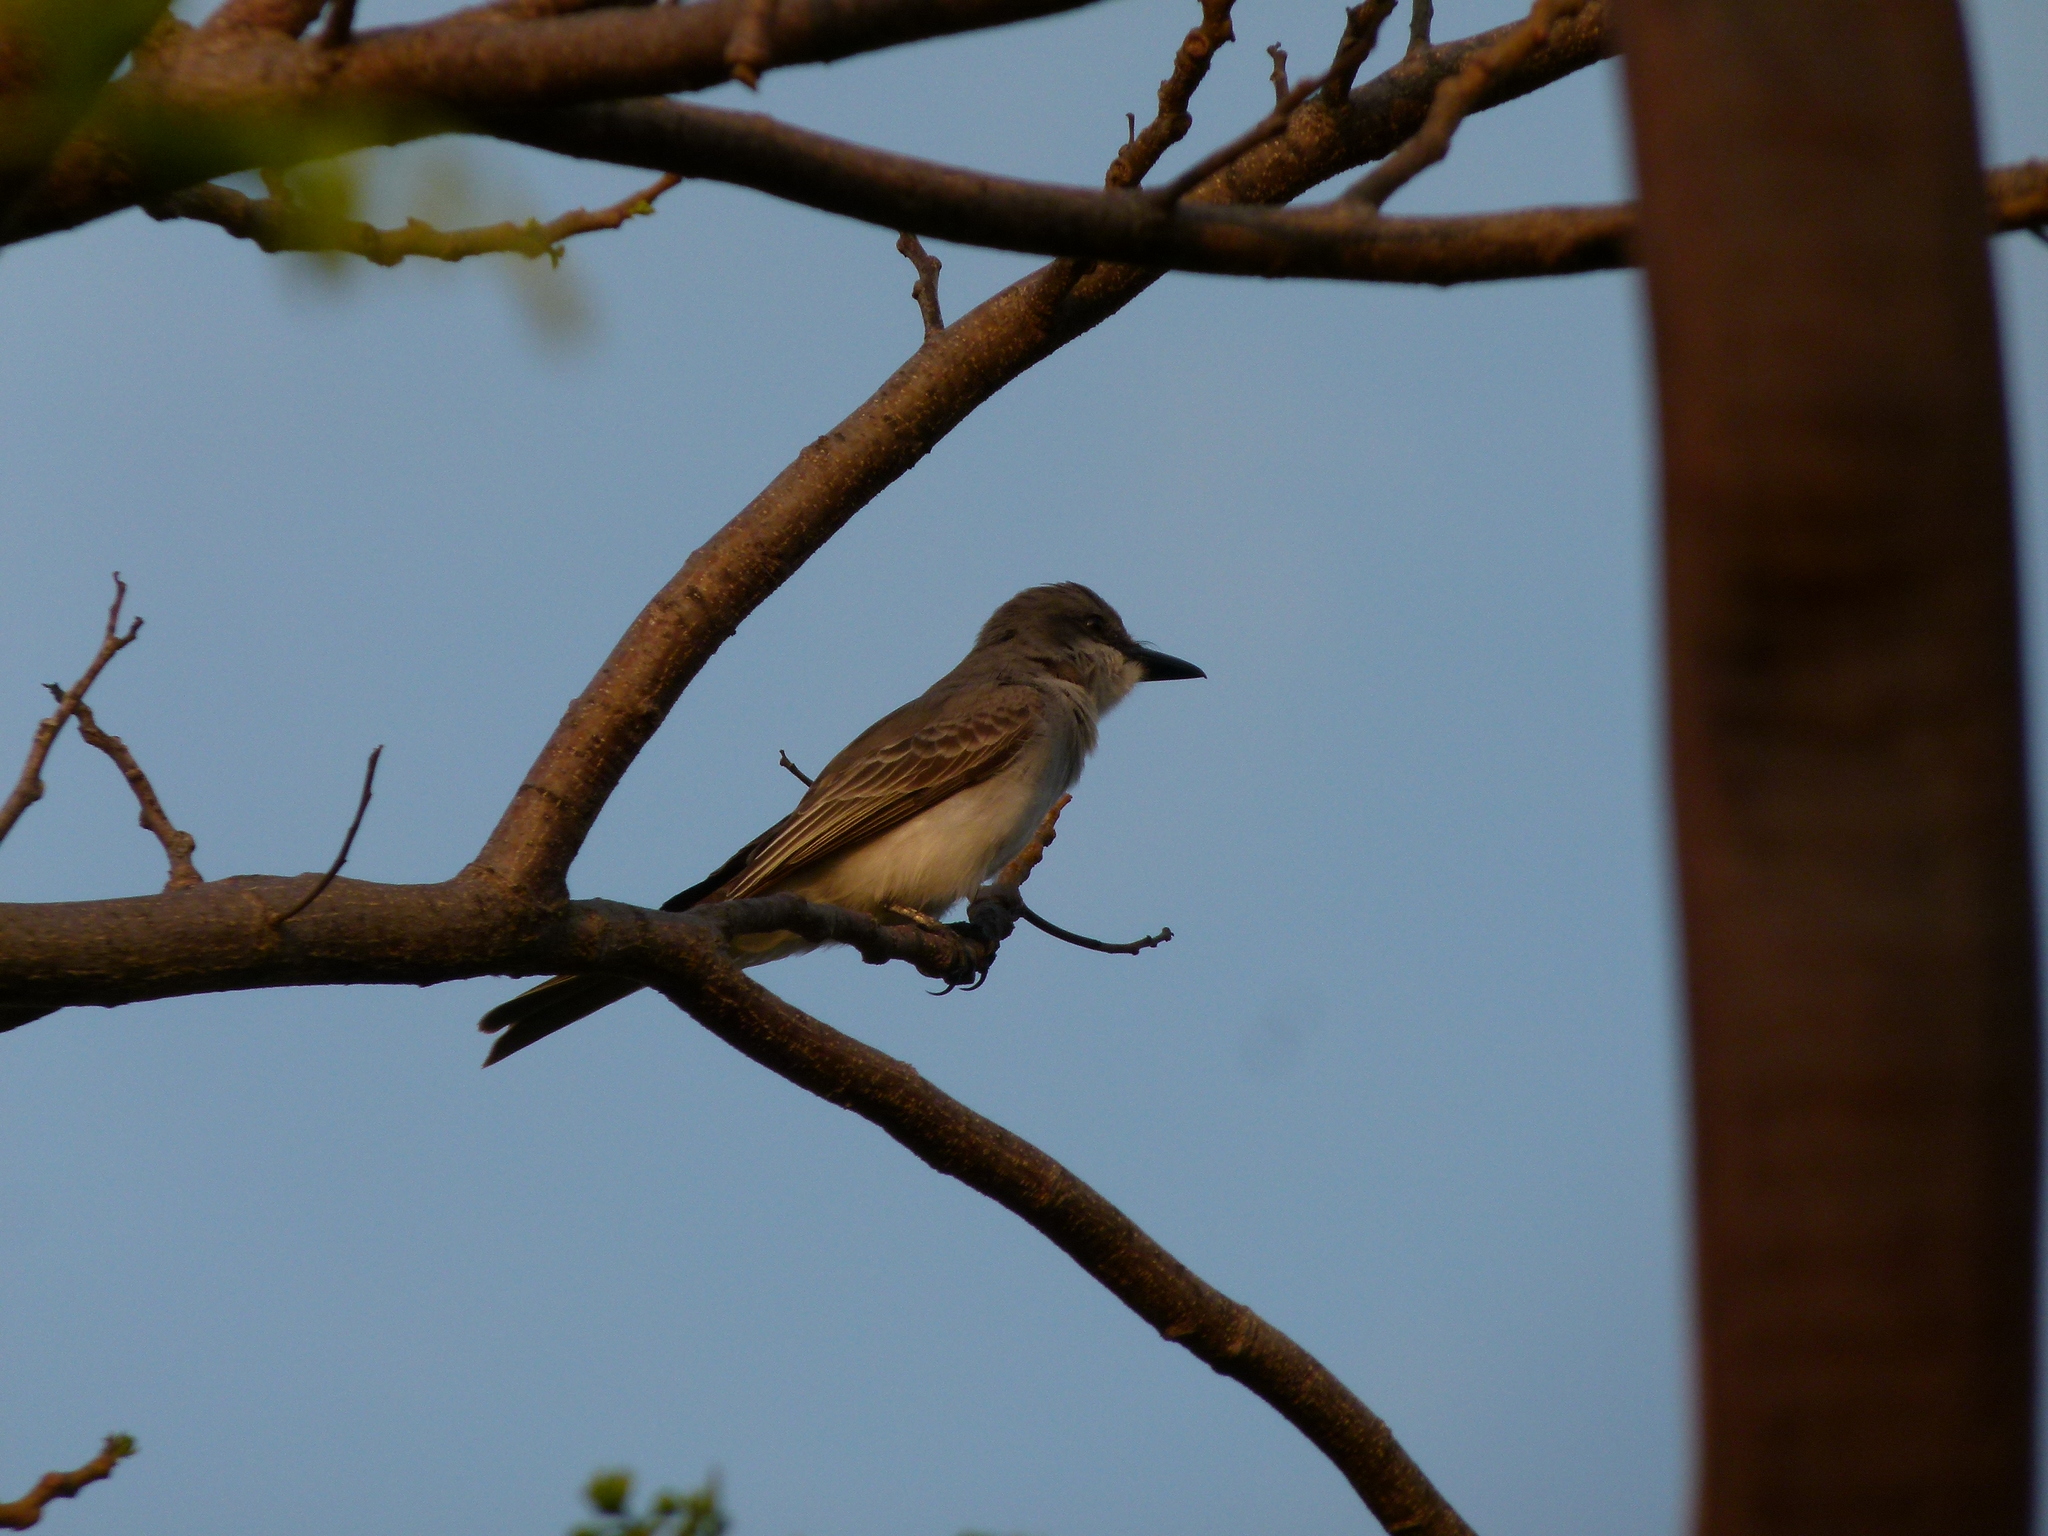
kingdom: Animalia
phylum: Chordata
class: Aves
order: Passeriformes
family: Tyrannidae
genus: Tyrannus
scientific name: Tyrannus dominicensis
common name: Gray kingbird
